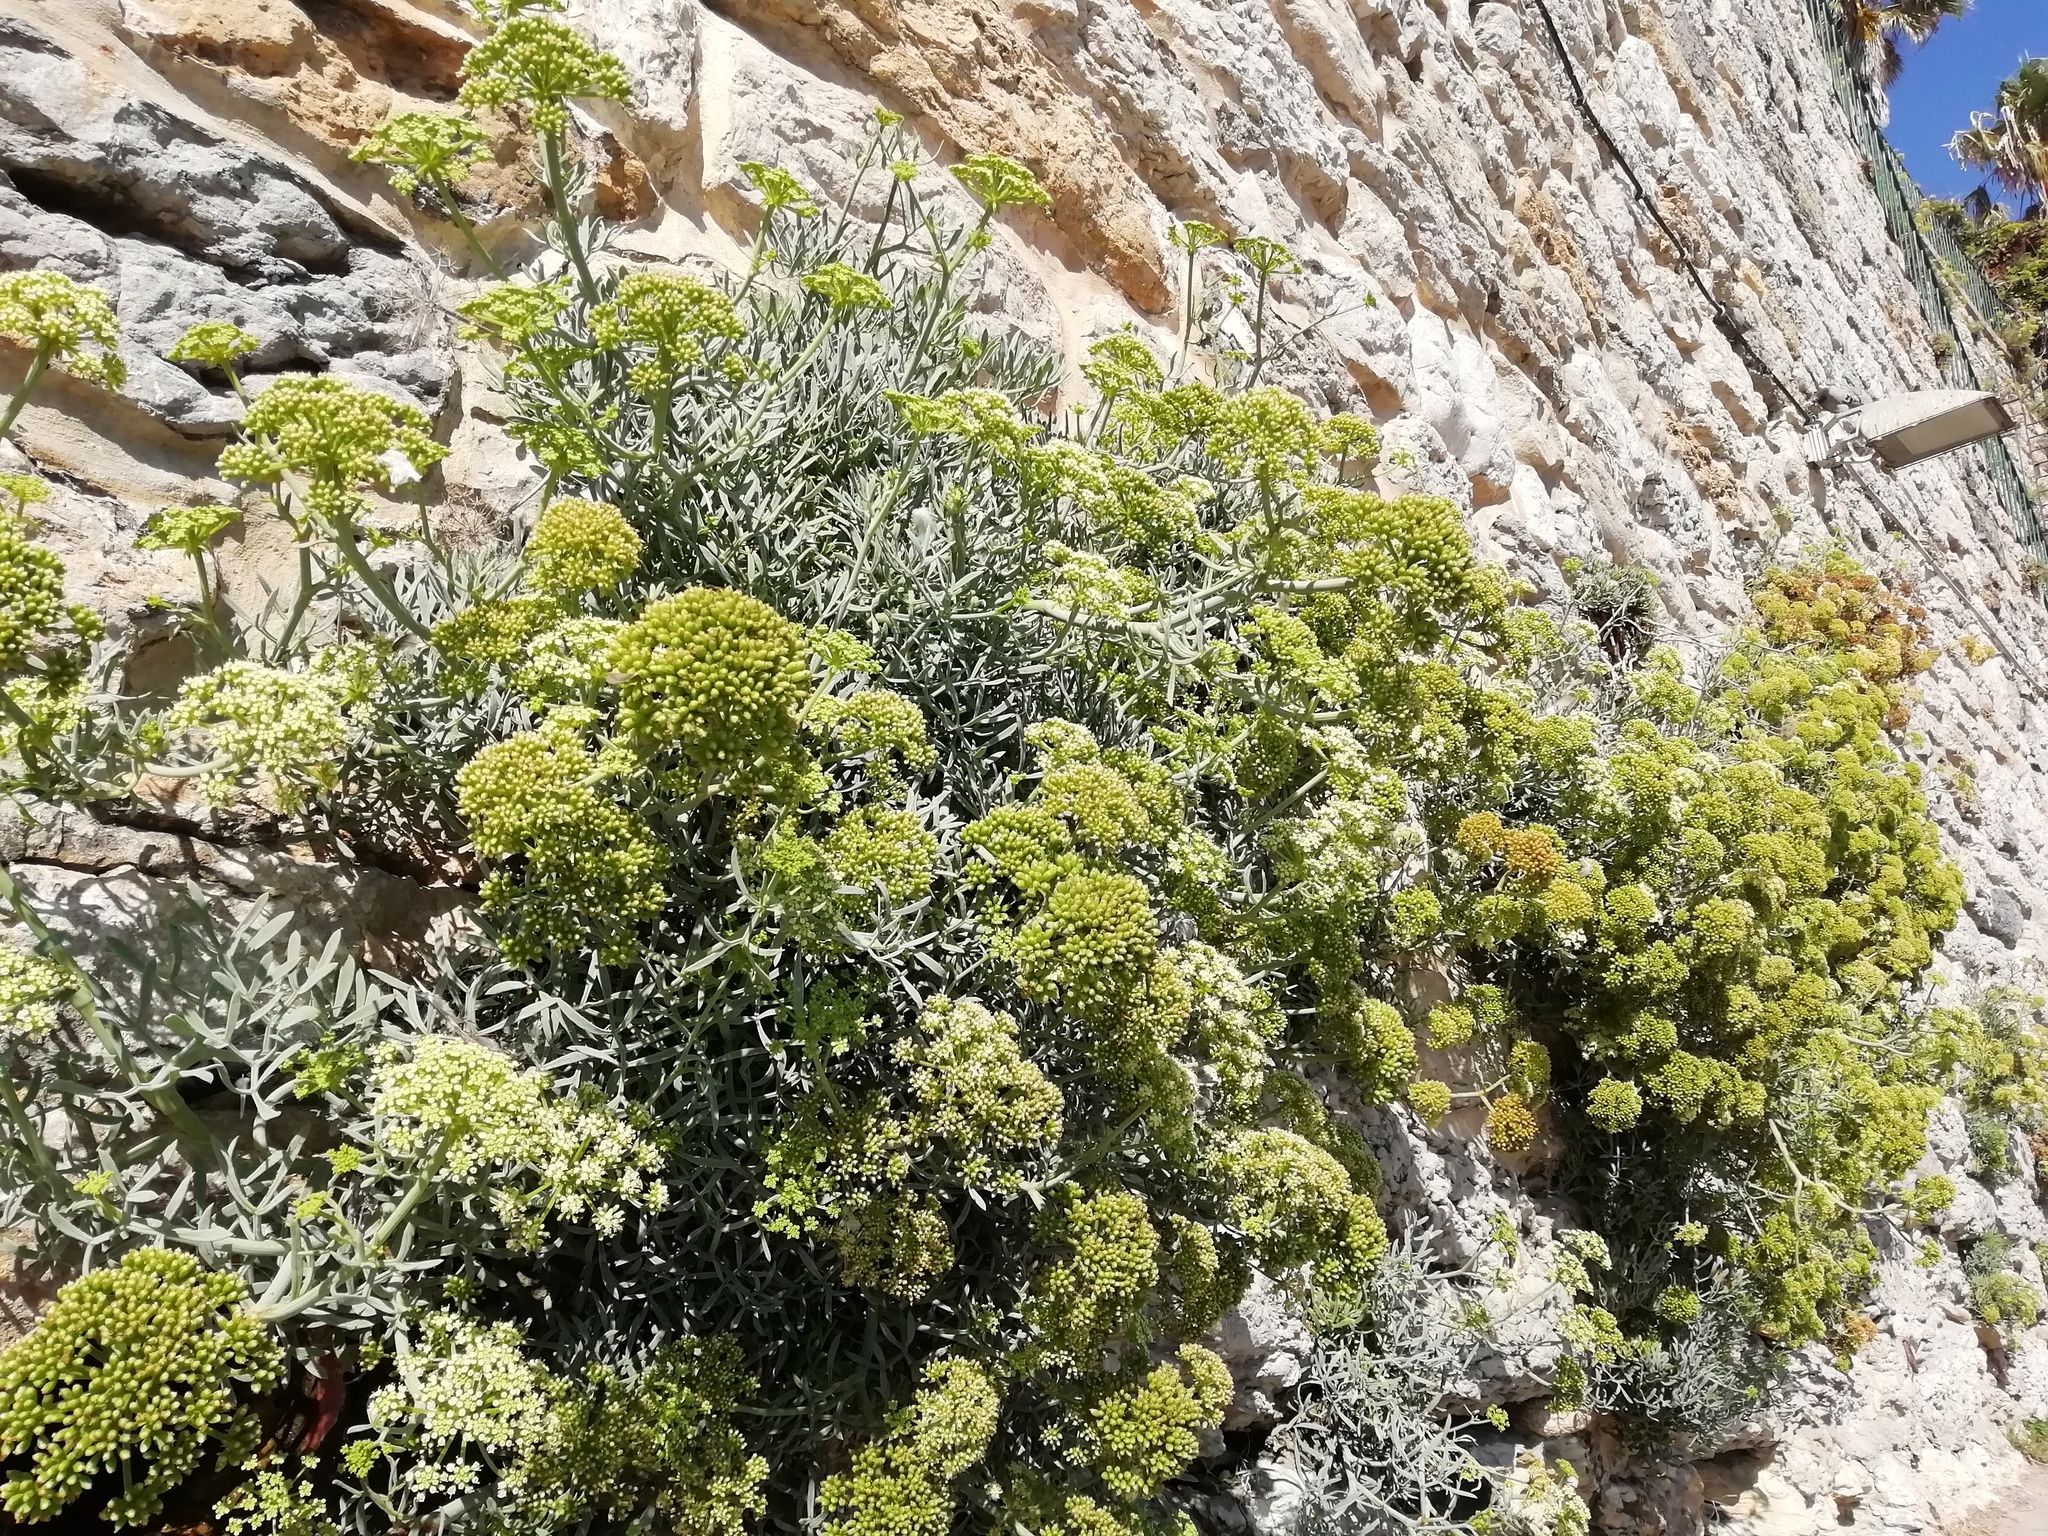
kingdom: Plantae
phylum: Tracheophyta
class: Magnoliopsida
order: Apiales
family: Apiaceae
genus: Crithmum
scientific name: Crithmum maritimum
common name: Rock samphire
